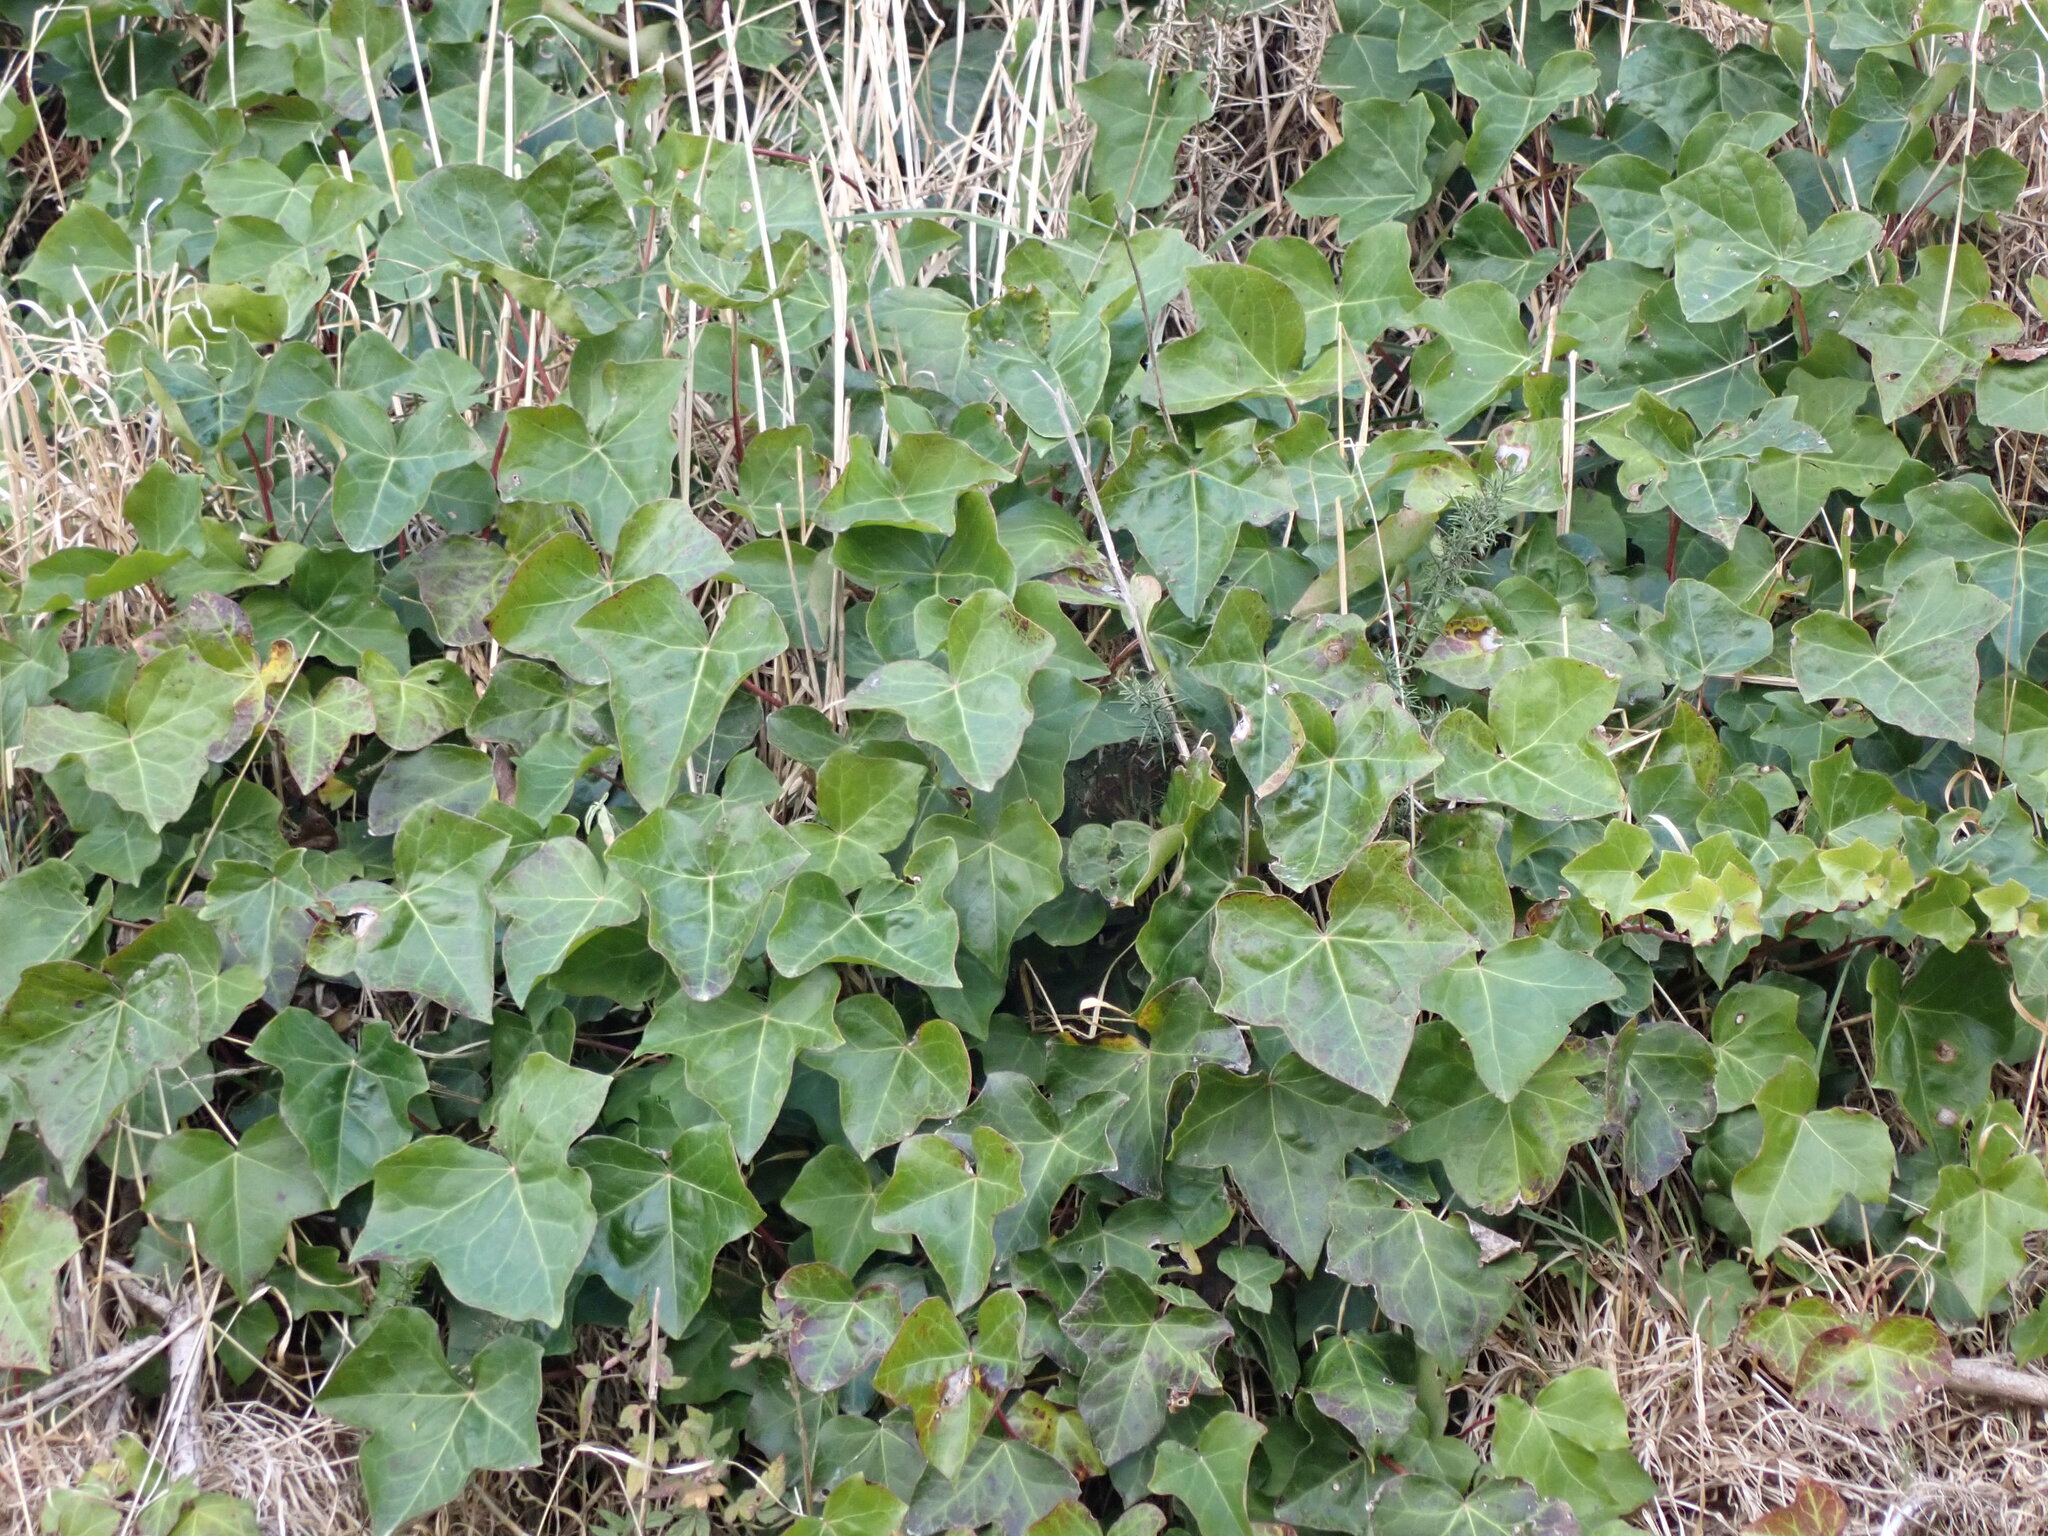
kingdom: Plantae
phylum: Tracheophyta
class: Magnoliopsida
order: Apiales
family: Araliaceae
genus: Hedera
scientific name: Hedera helix
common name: Ivy
